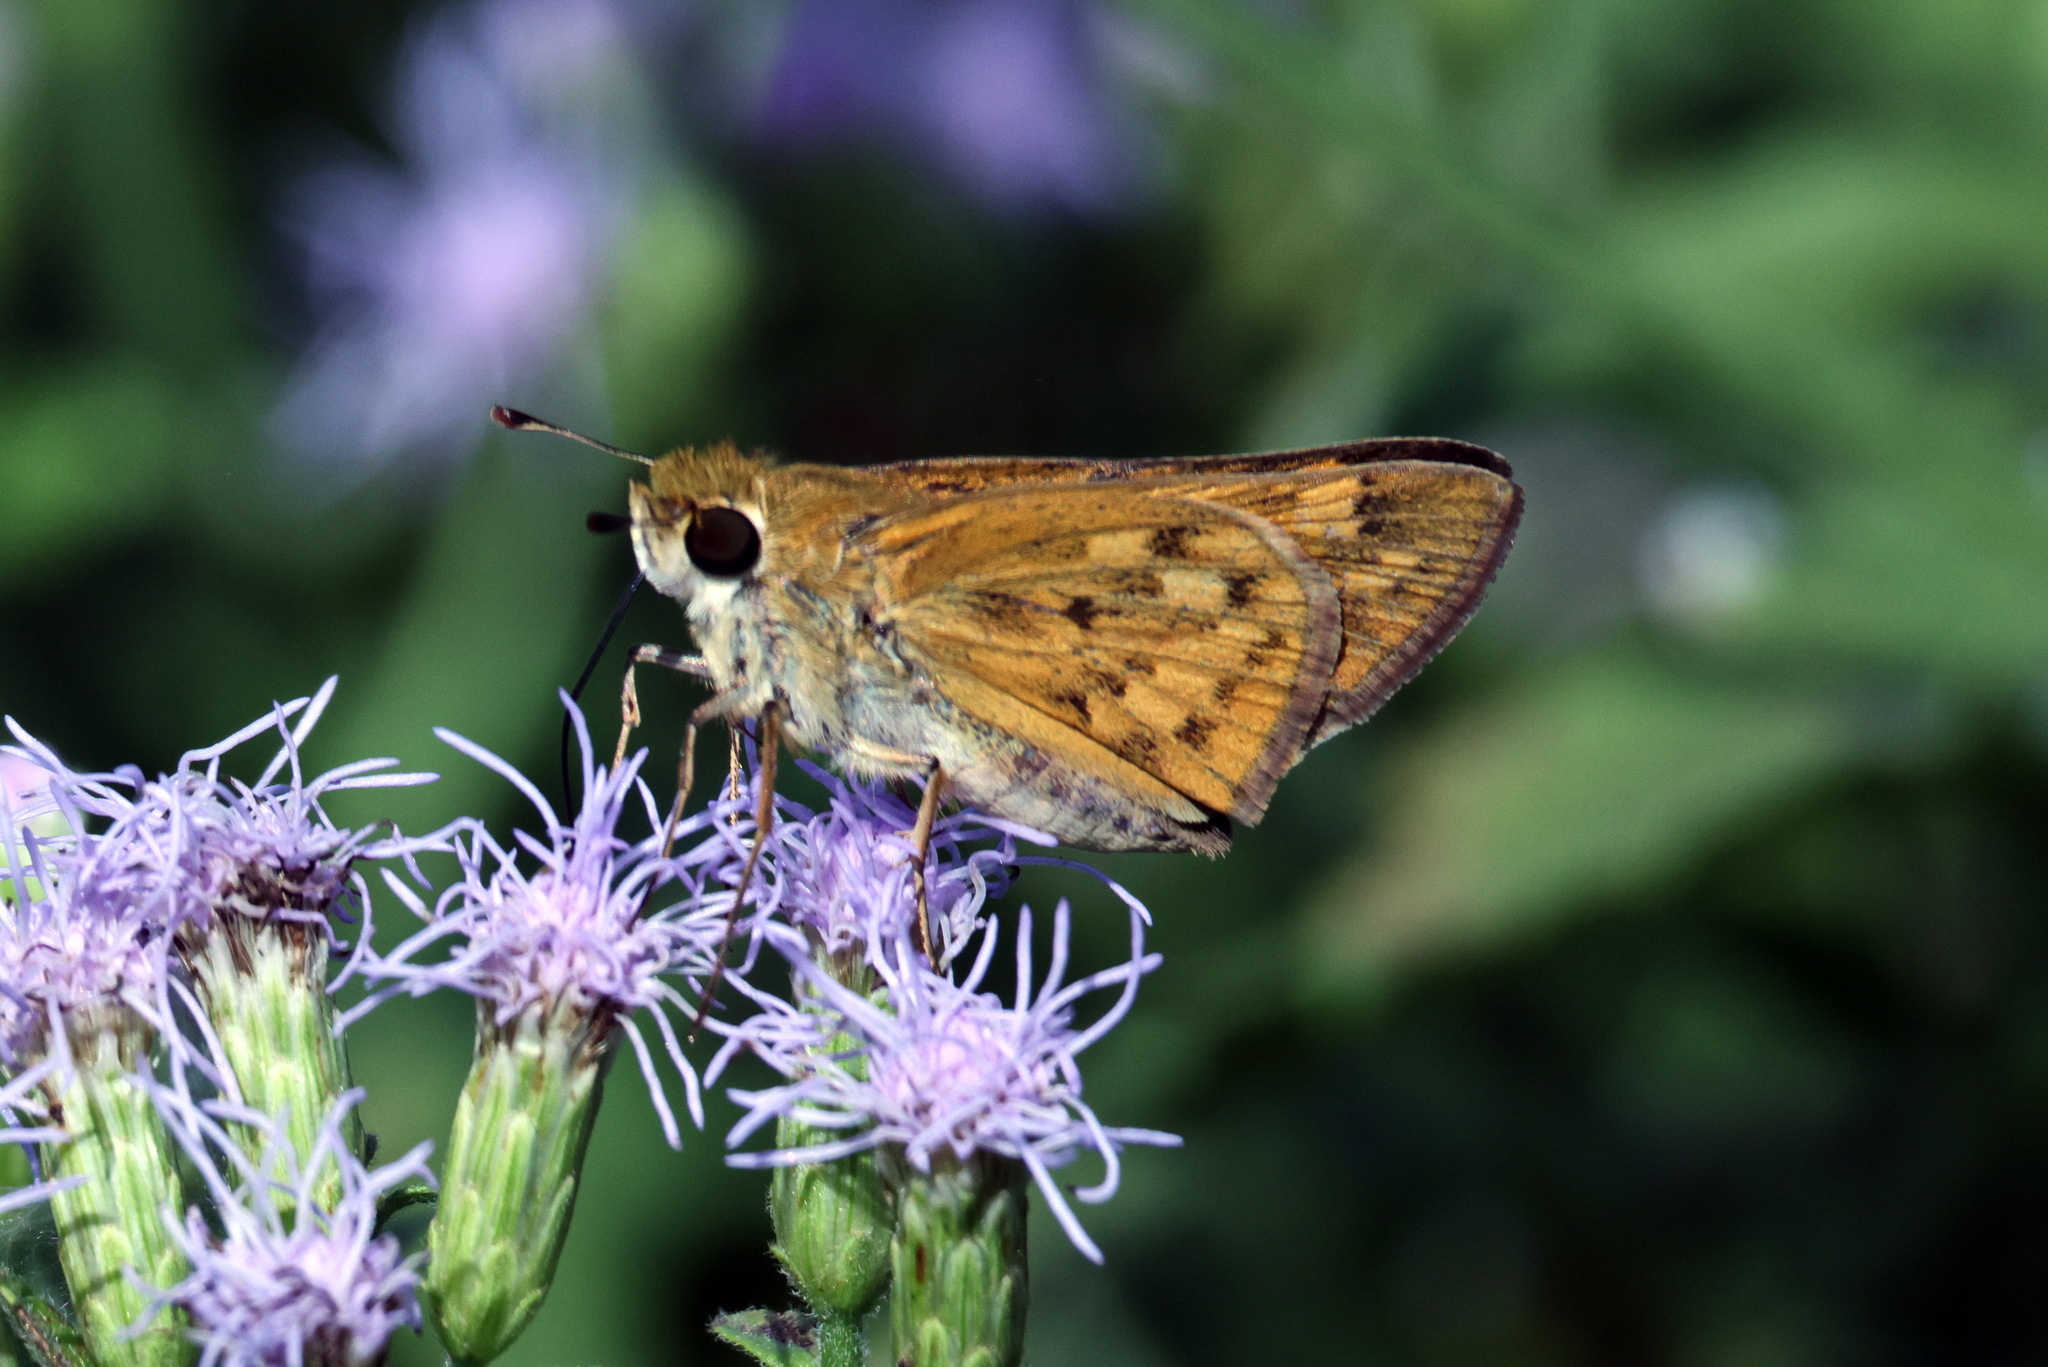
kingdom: Animalia
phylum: Arthropoda
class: Insecta
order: Lepidoptera
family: Hesperiidae
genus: Hylephila
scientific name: Hylephila phyleus
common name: Fiery skipper
